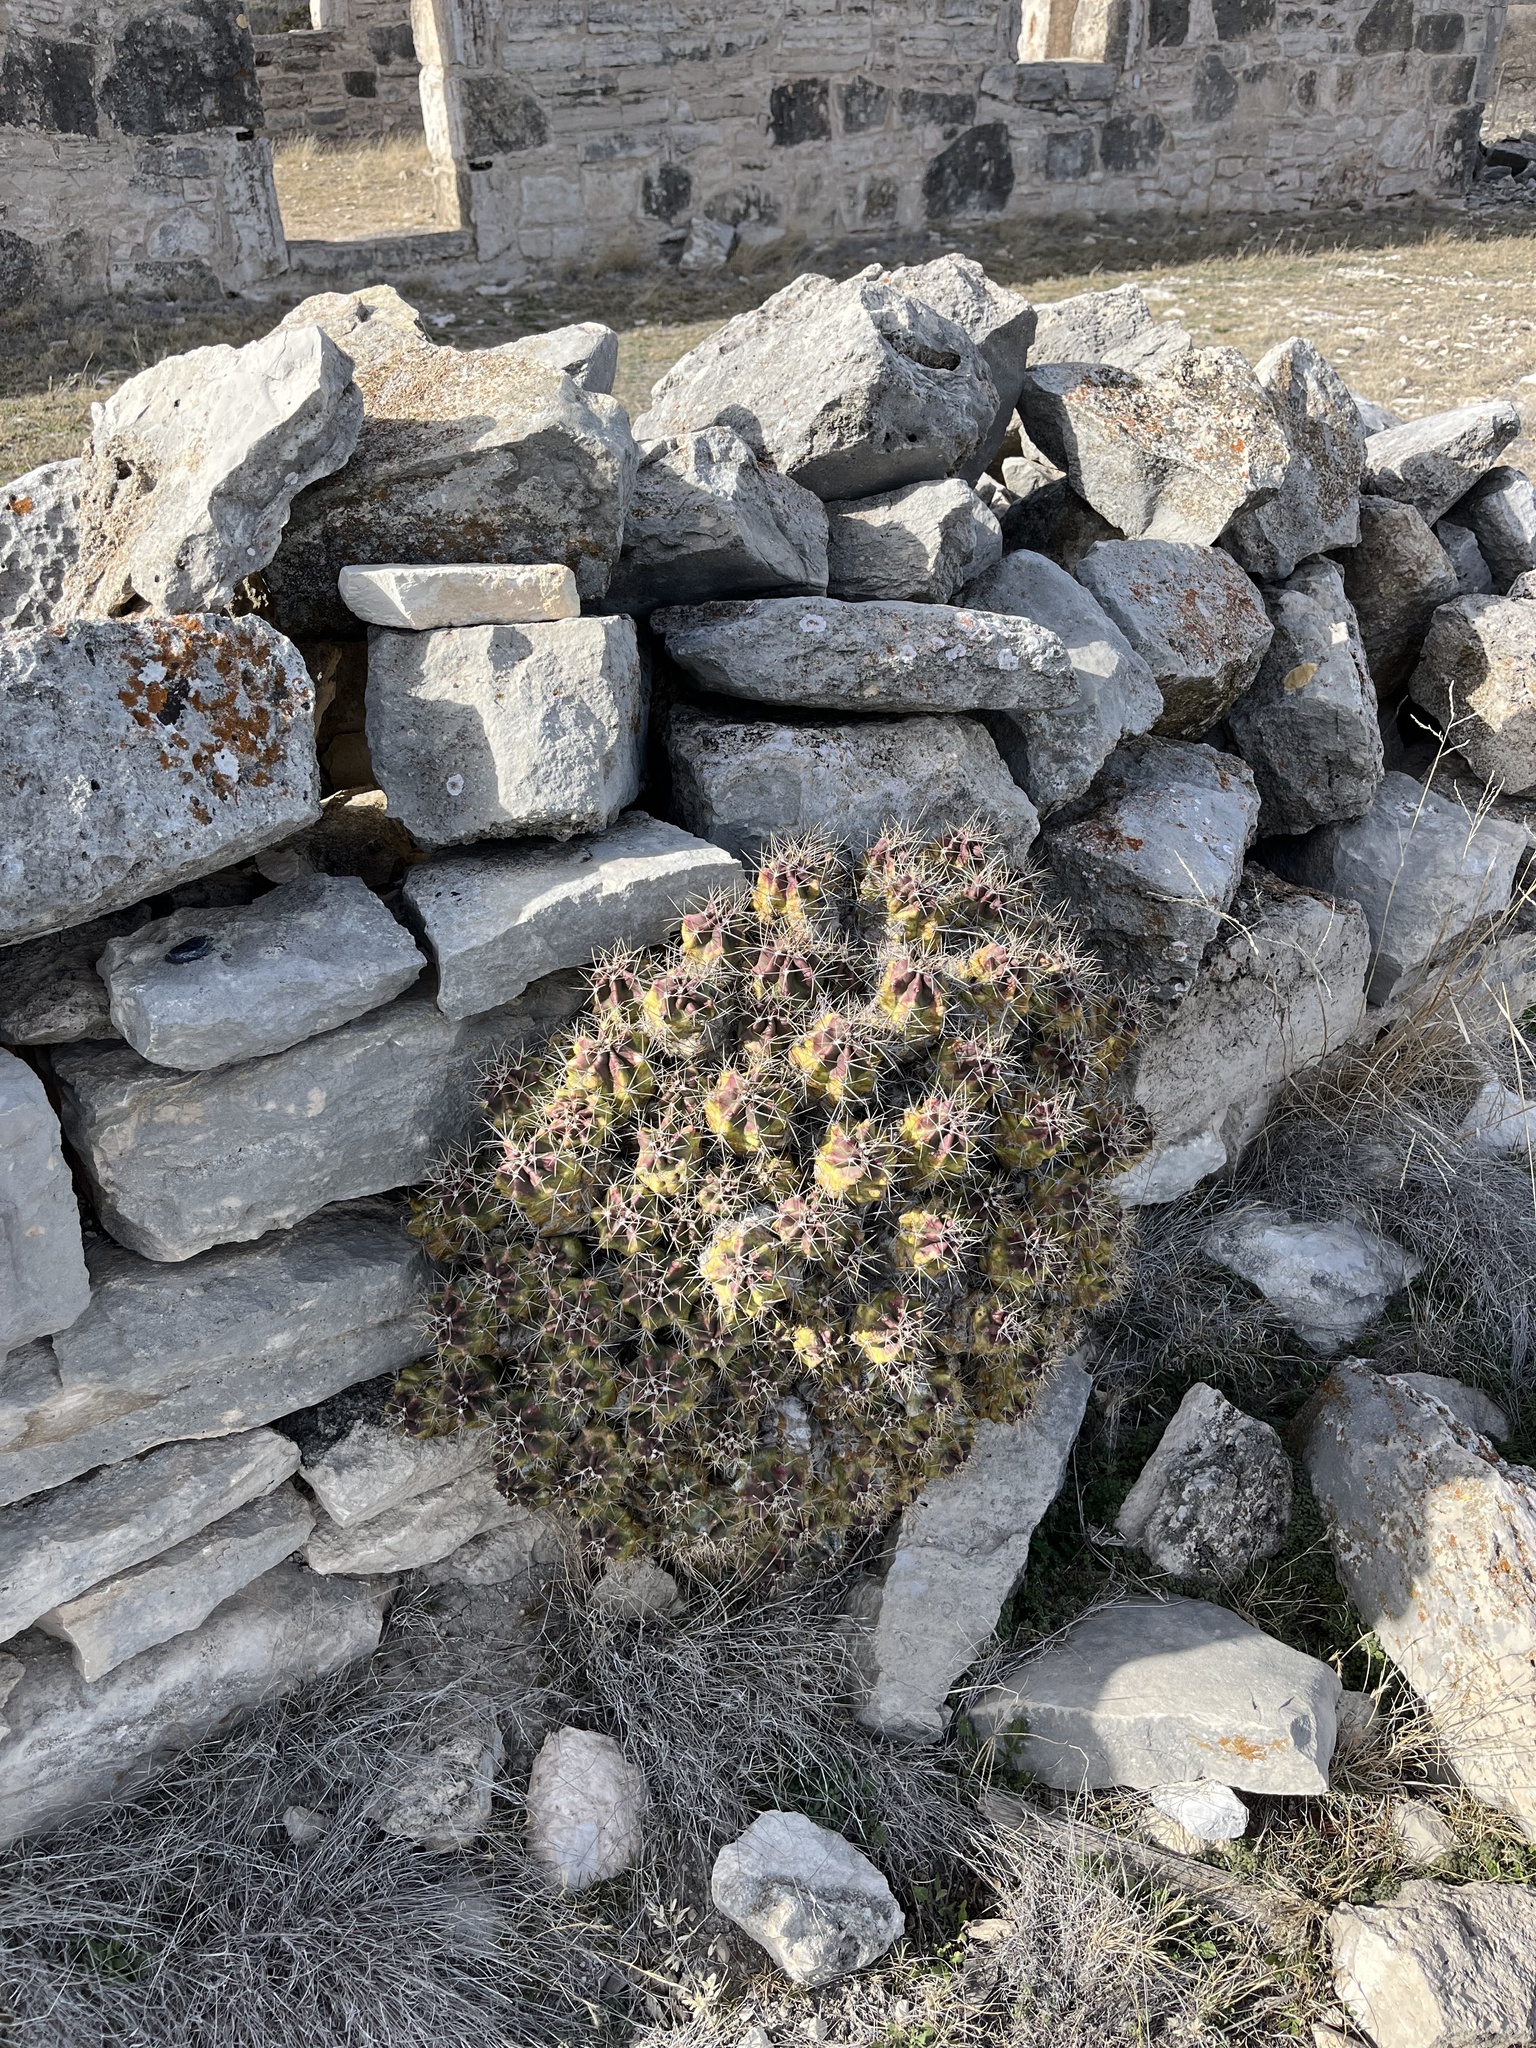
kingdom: Plantae
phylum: Tracheophyta
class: Magnoliopsida
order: Caryophyllales
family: Cactaceae
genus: Echinocereus
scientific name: Echinocereus coccineus
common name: Scarlet hedgehog cactus
